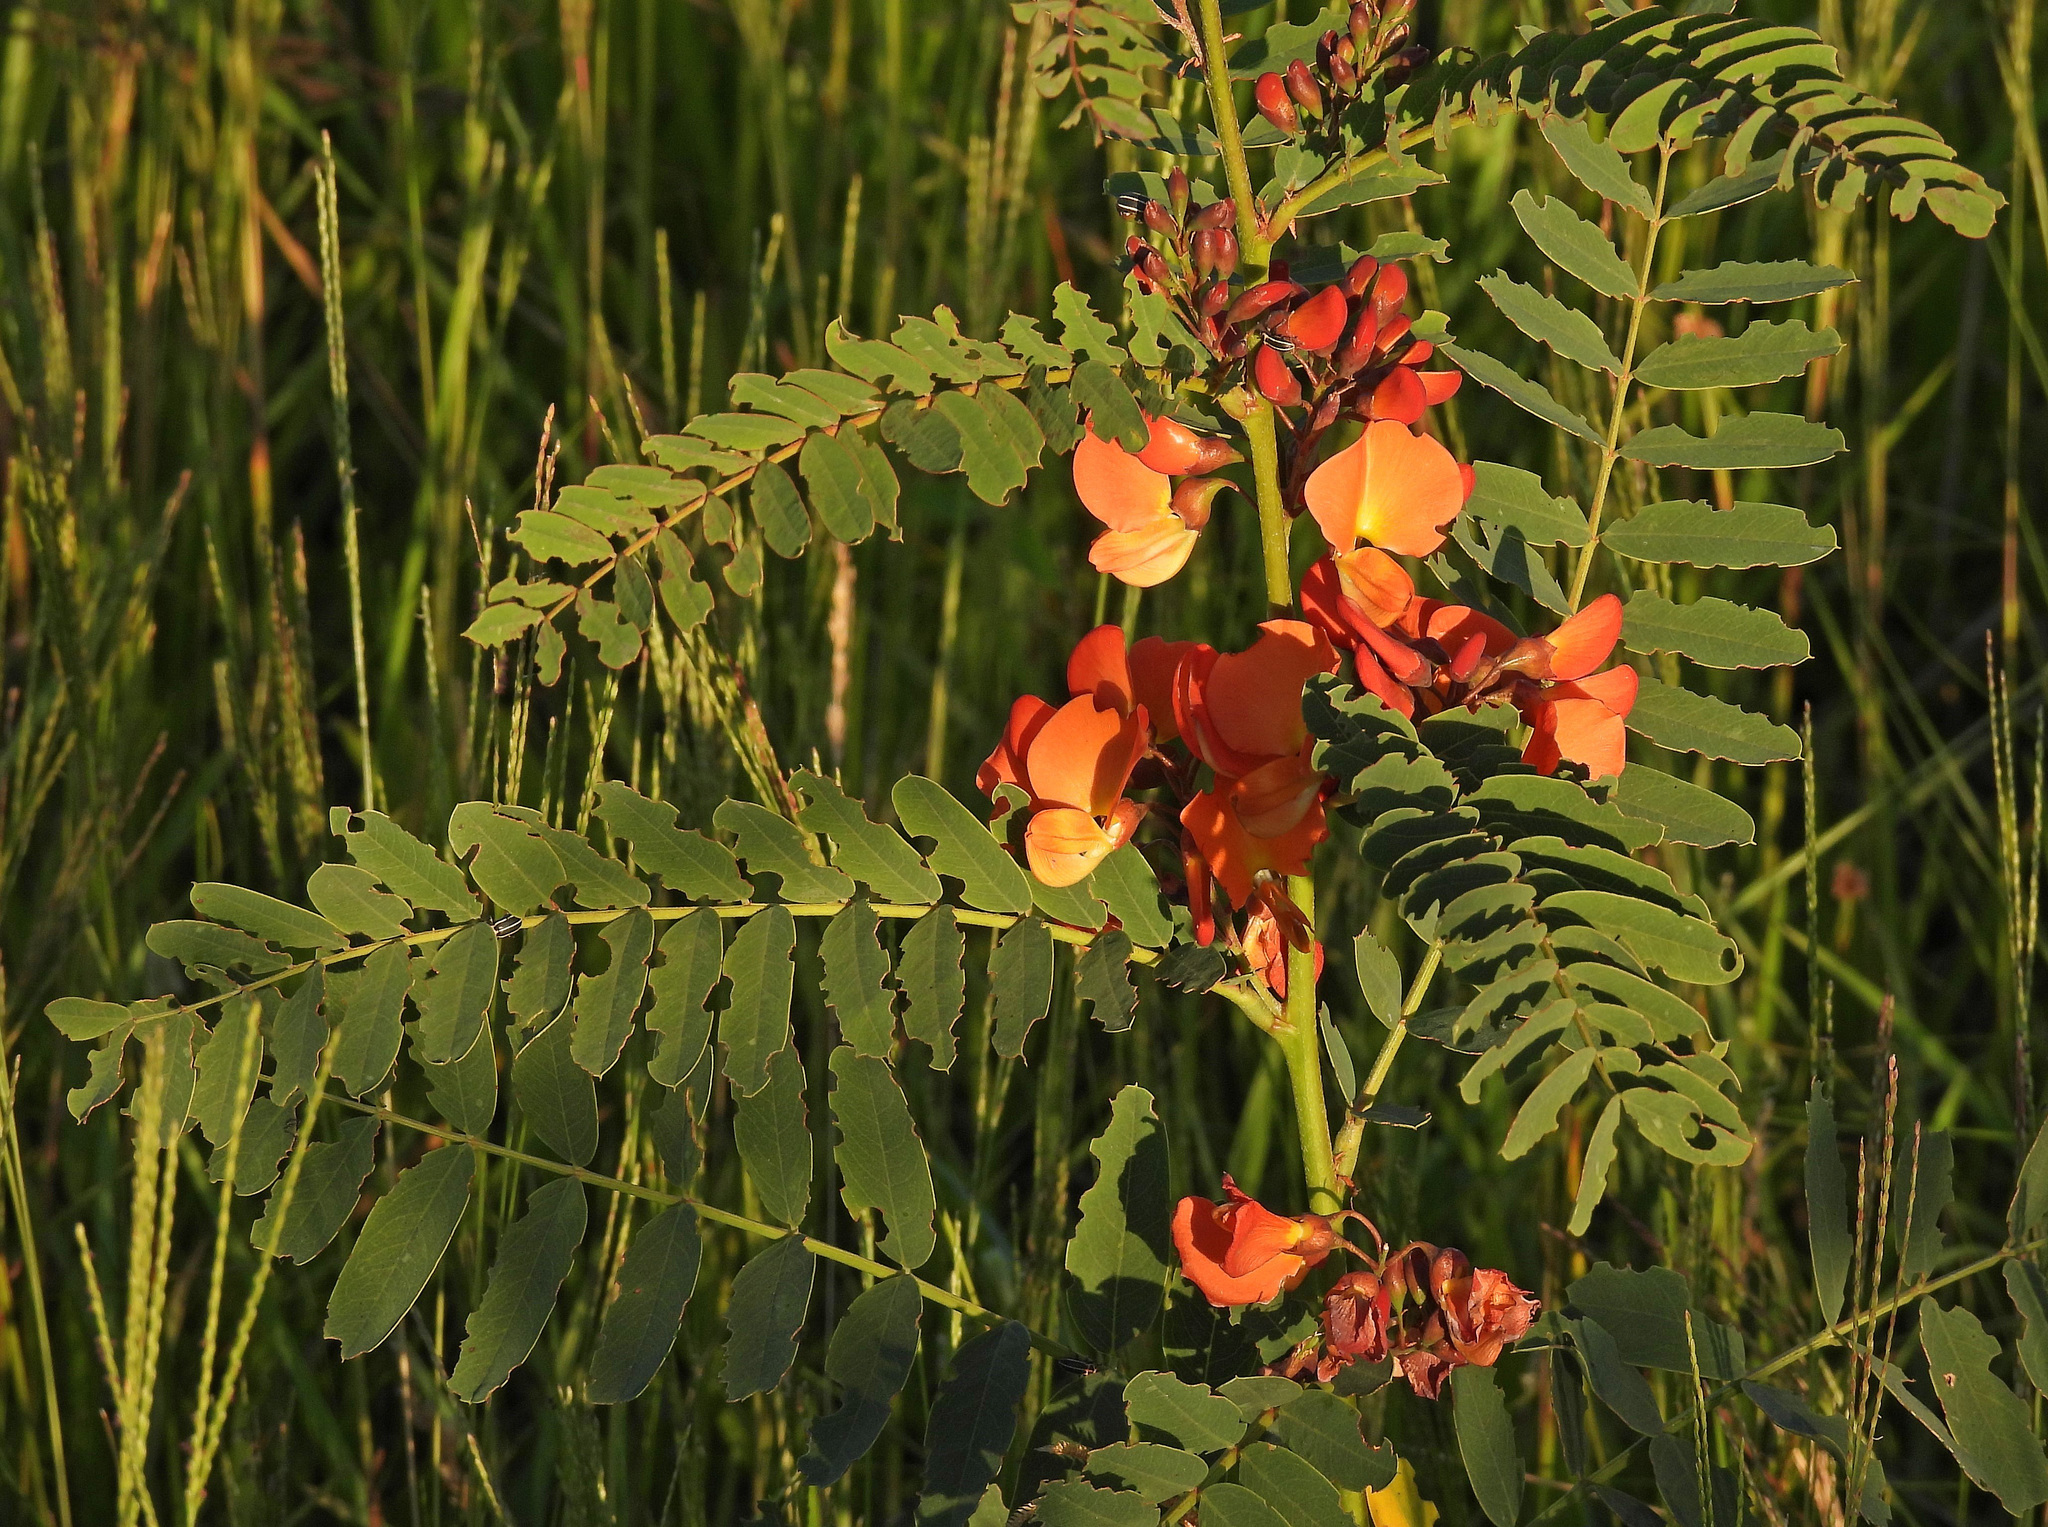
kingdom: Plantae
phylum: Tracheophyta
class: Magnoliopsida
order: Fabales
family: Fabaceae
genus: Sesbania
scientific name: Sesbania punicea
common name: Rattlebox
